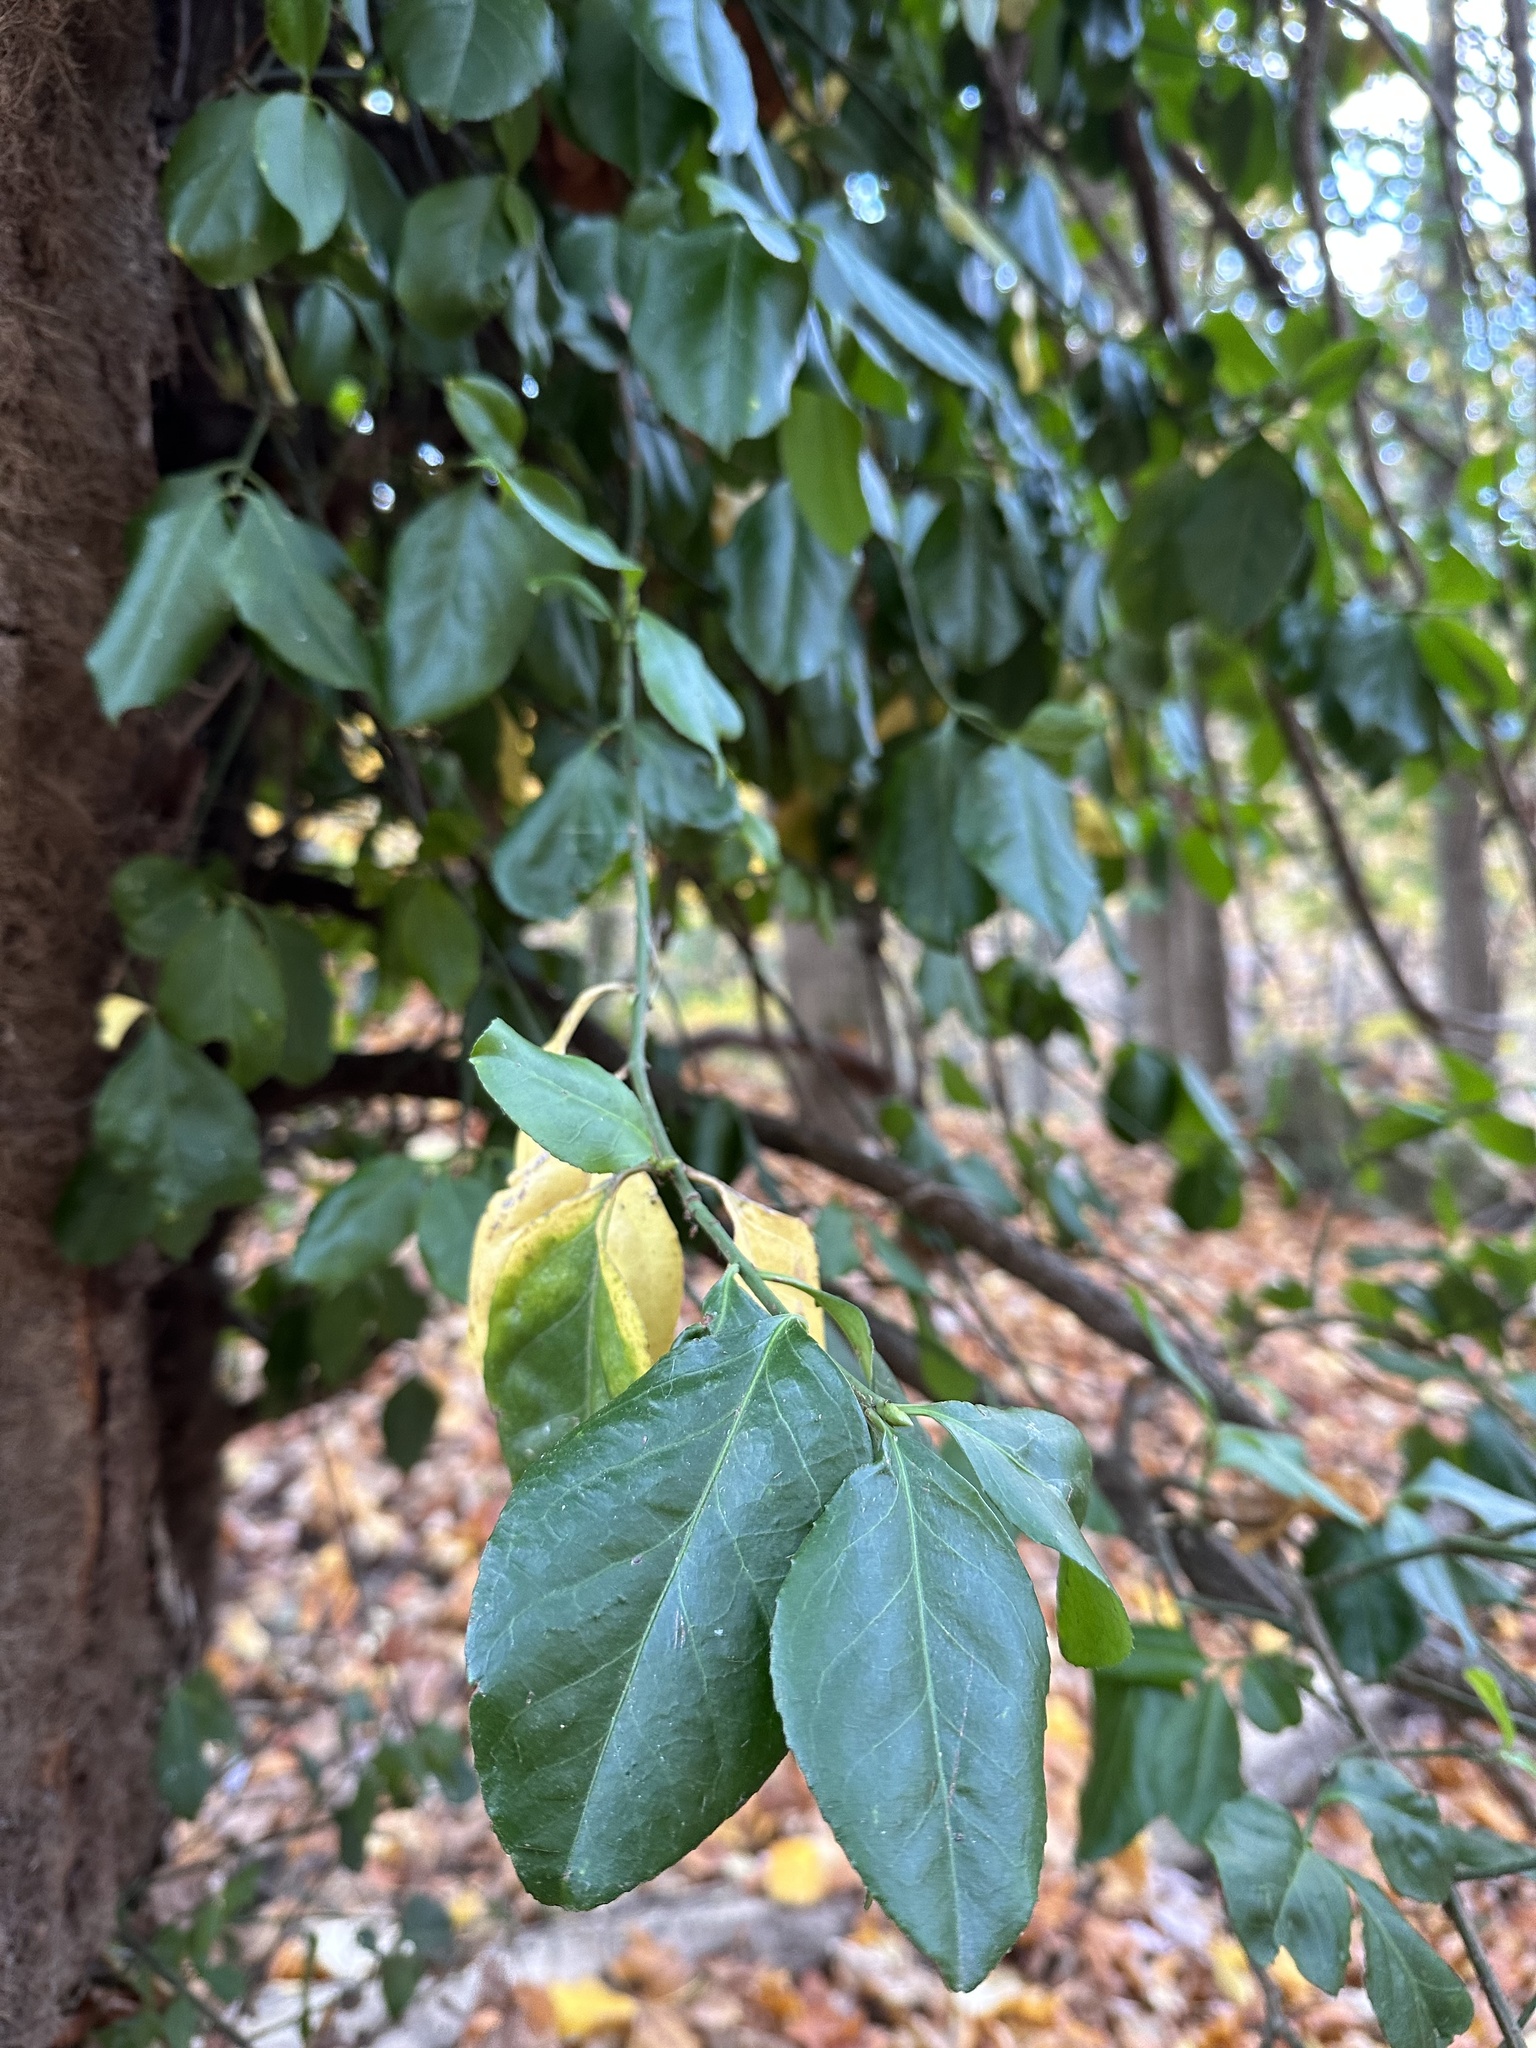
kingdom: Plantae
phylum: Tracheophyta
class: Magnoliopsida
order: Celastrales
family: Celastraceae
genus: Euonymus
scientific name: Euonymus fortunei
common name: Climbing euonymus
